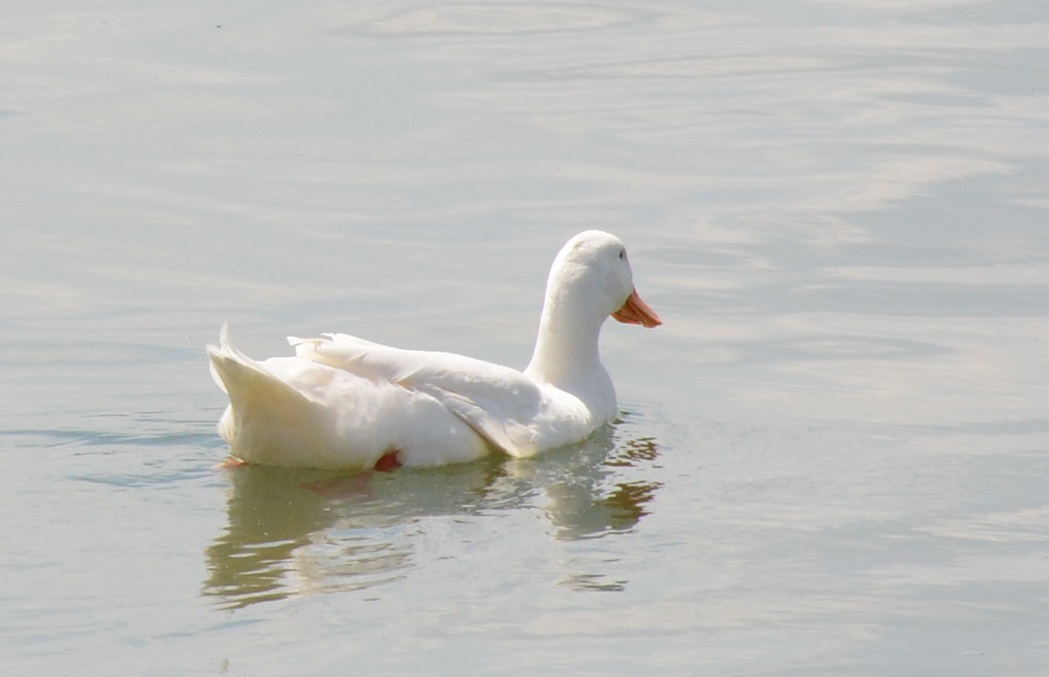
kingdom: Animalia
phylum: Chordata
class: Aves
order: Anseriformes
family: Anatidae
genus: Anas
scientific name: Anas platyrhynchos
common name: Mallard
